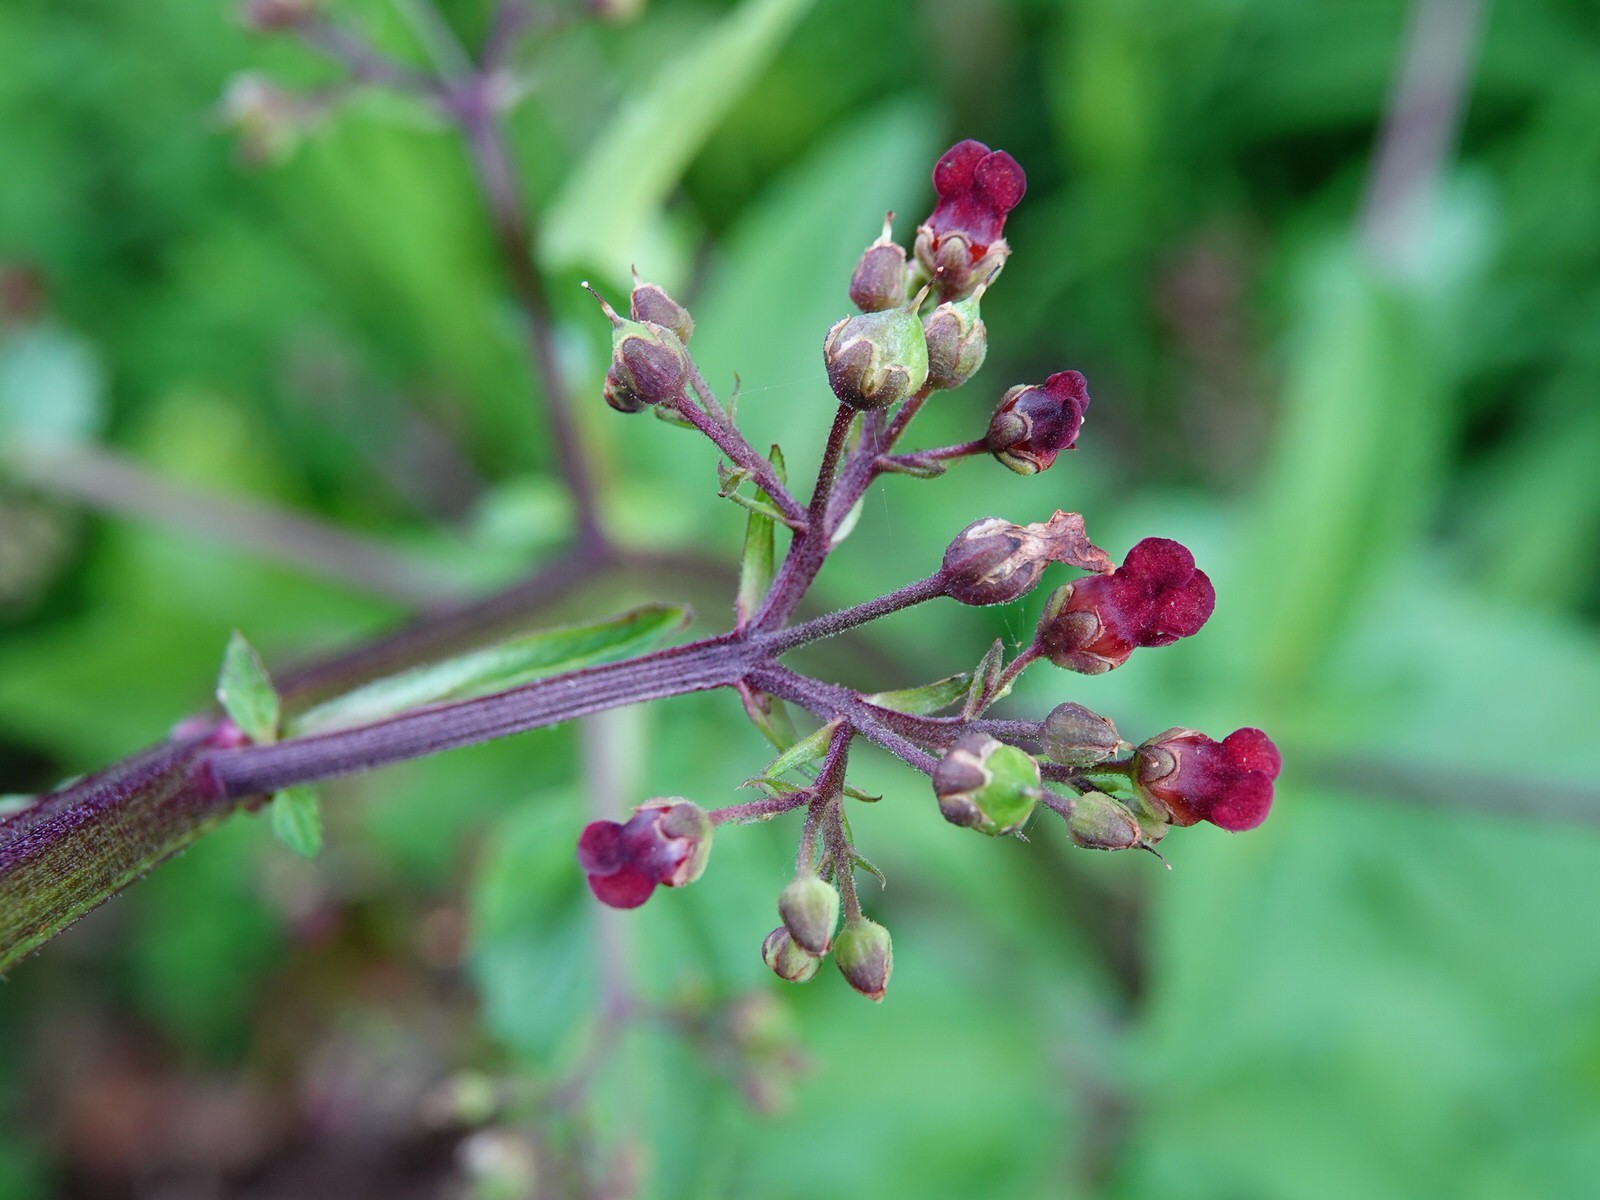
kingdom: Plantae
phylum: Tracheophyta
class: Magnoliopsida
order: Lamiales
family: Scrophulariaceae
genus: Scrophularia
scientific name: Scrophularia auriculata
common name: Water betony
